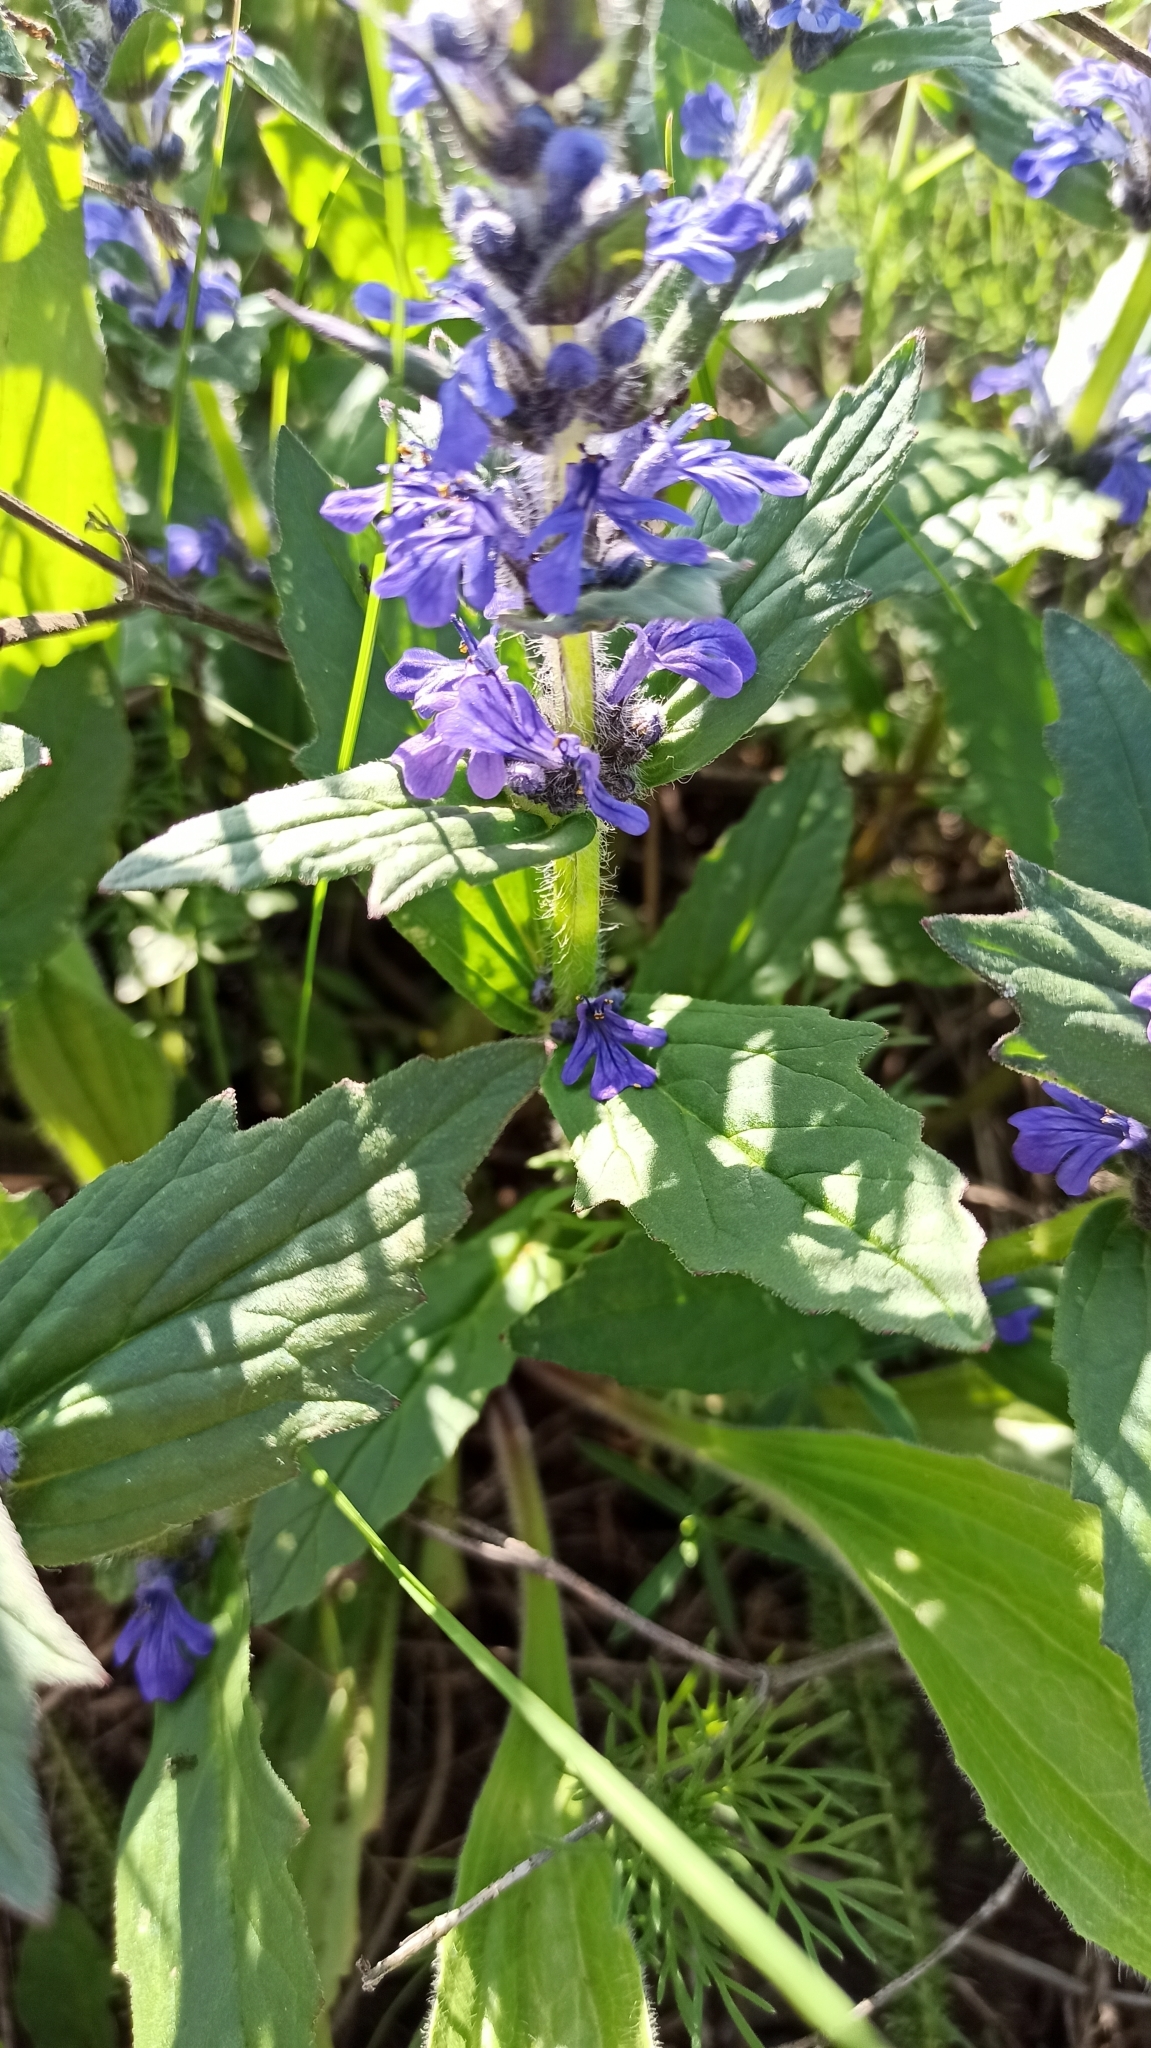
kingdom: Plantae
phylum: Tracheophyta
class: Magnoliopsida
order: Lamiales
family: Lamiaceae
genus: Ajuga
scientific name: Ajuga genevensis
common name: Blue bugle
